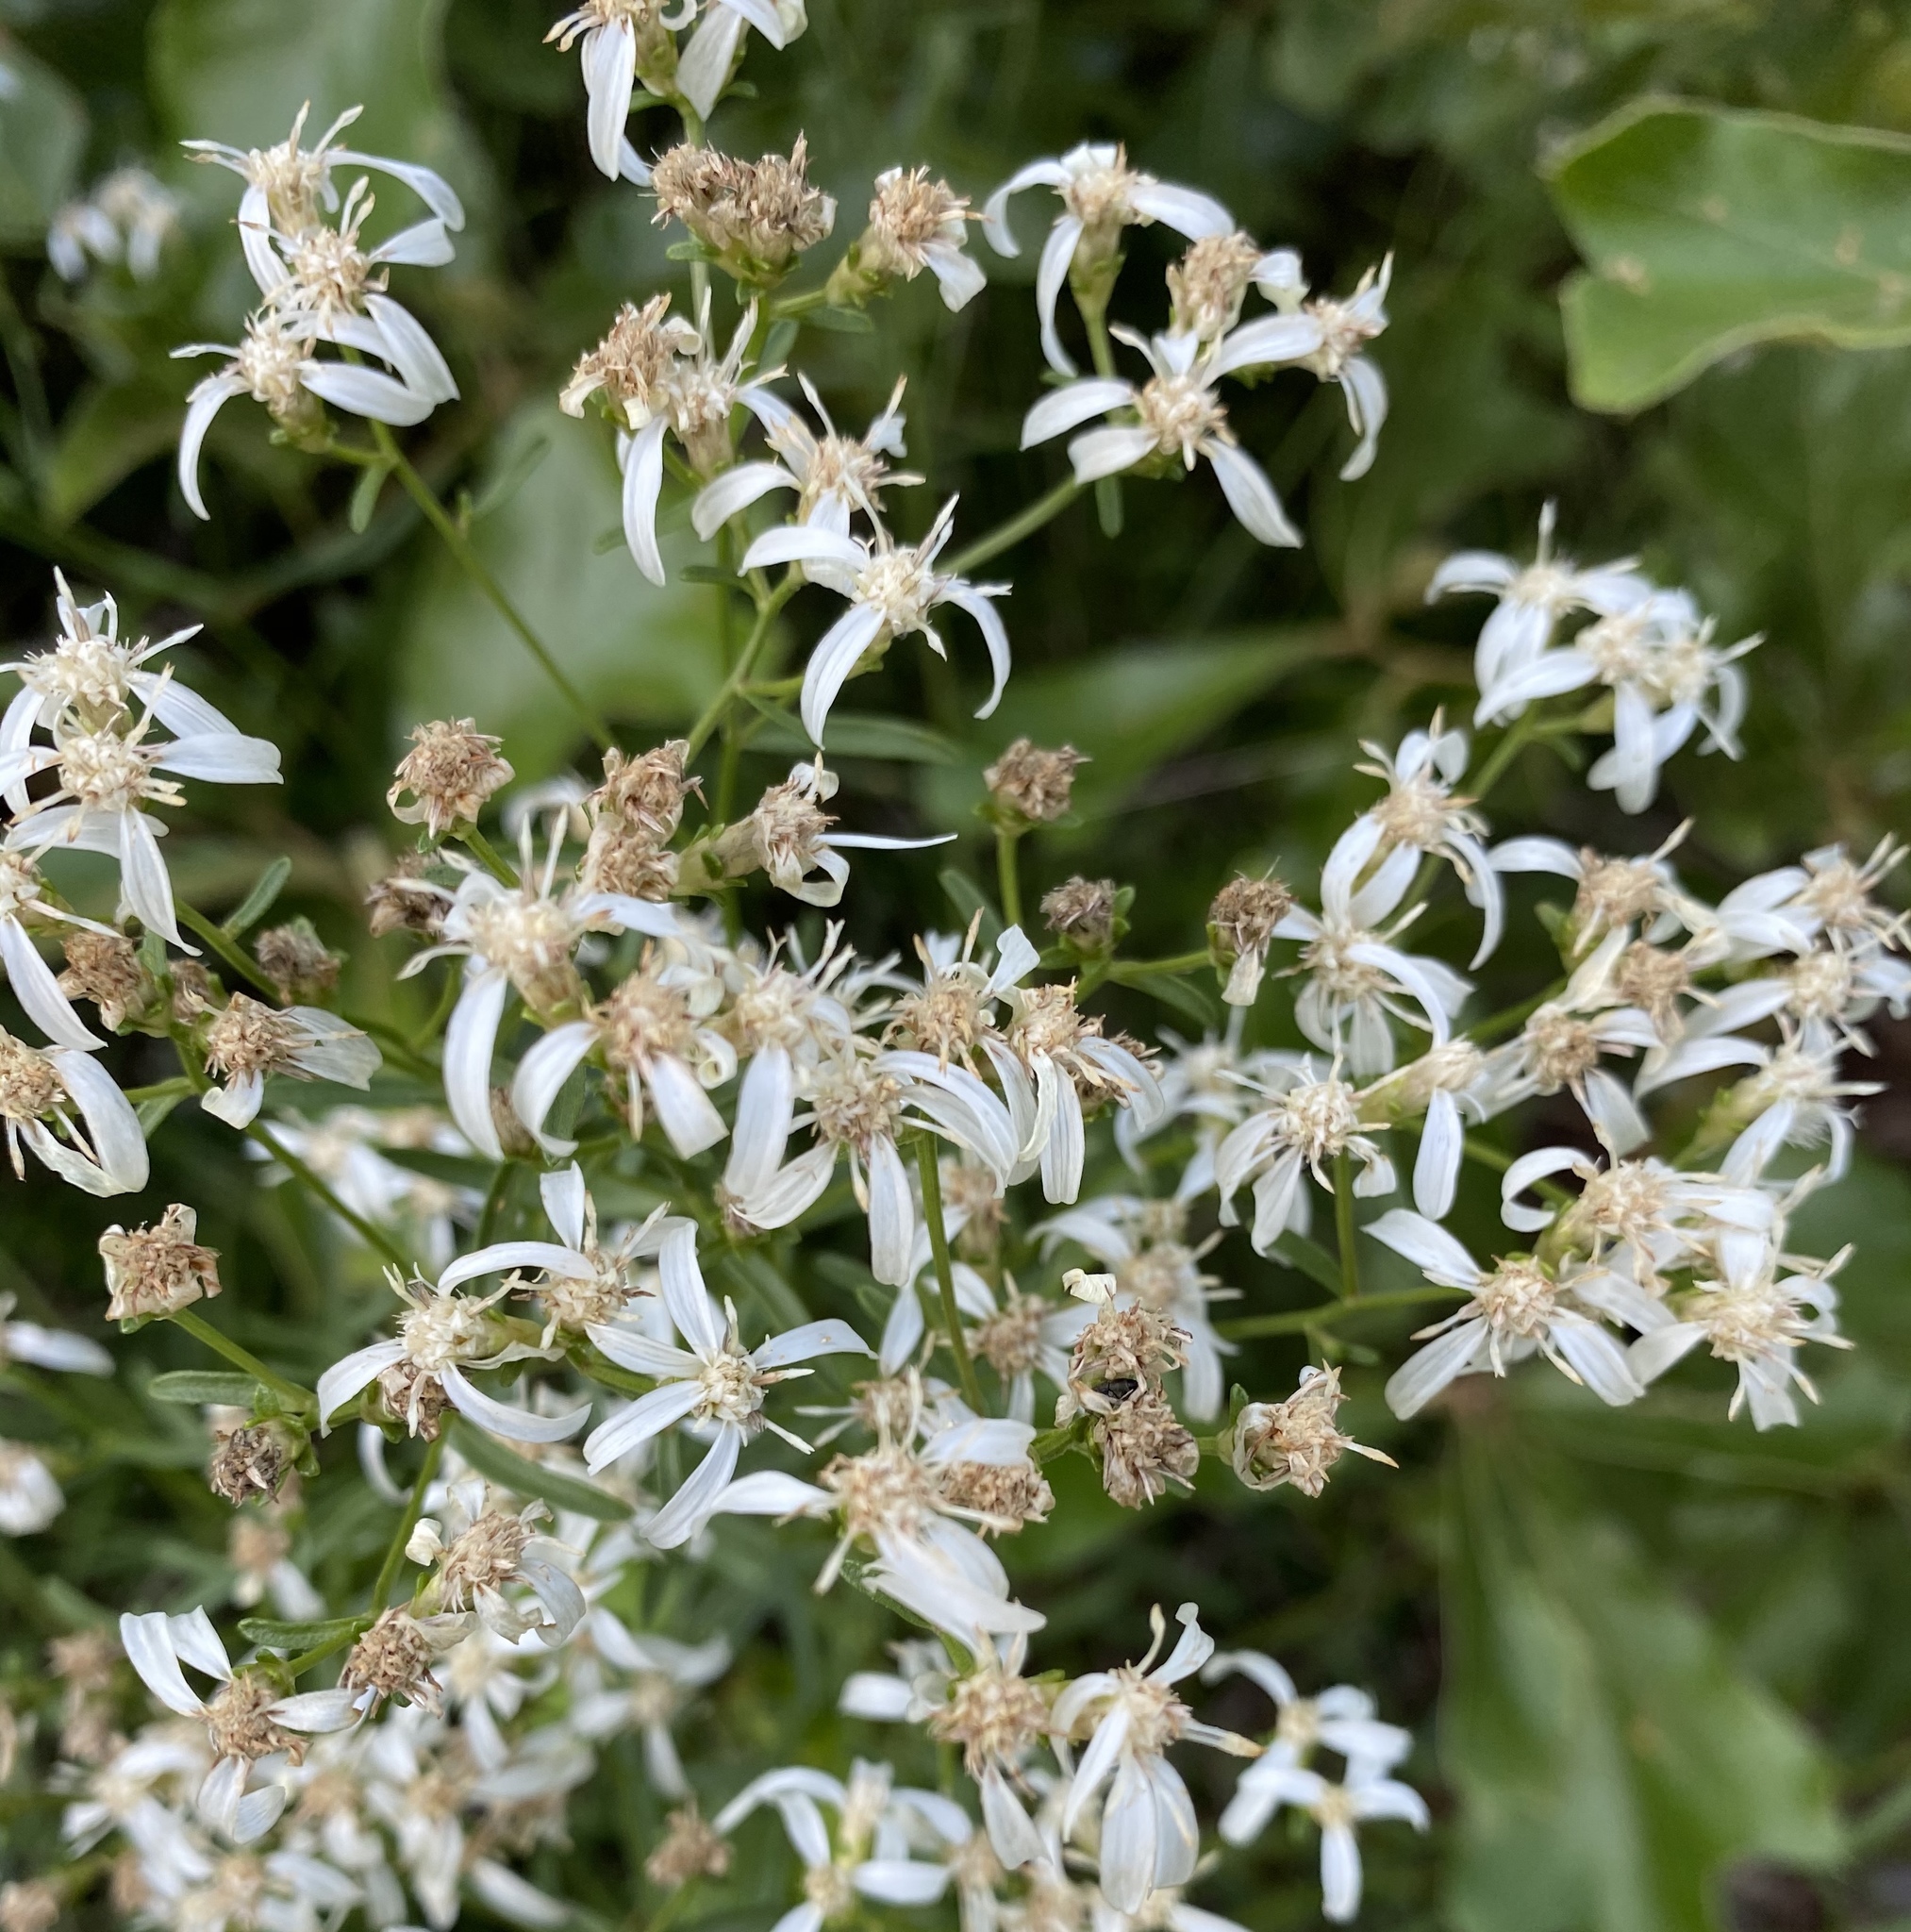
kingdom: Plantae
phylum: Tracheophyta
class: Magnoliopsida
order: Asterales
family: Asteraceae
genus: Sericocarpus
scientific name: Sericocarpus linifolius
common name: Narrow-leaf aster
